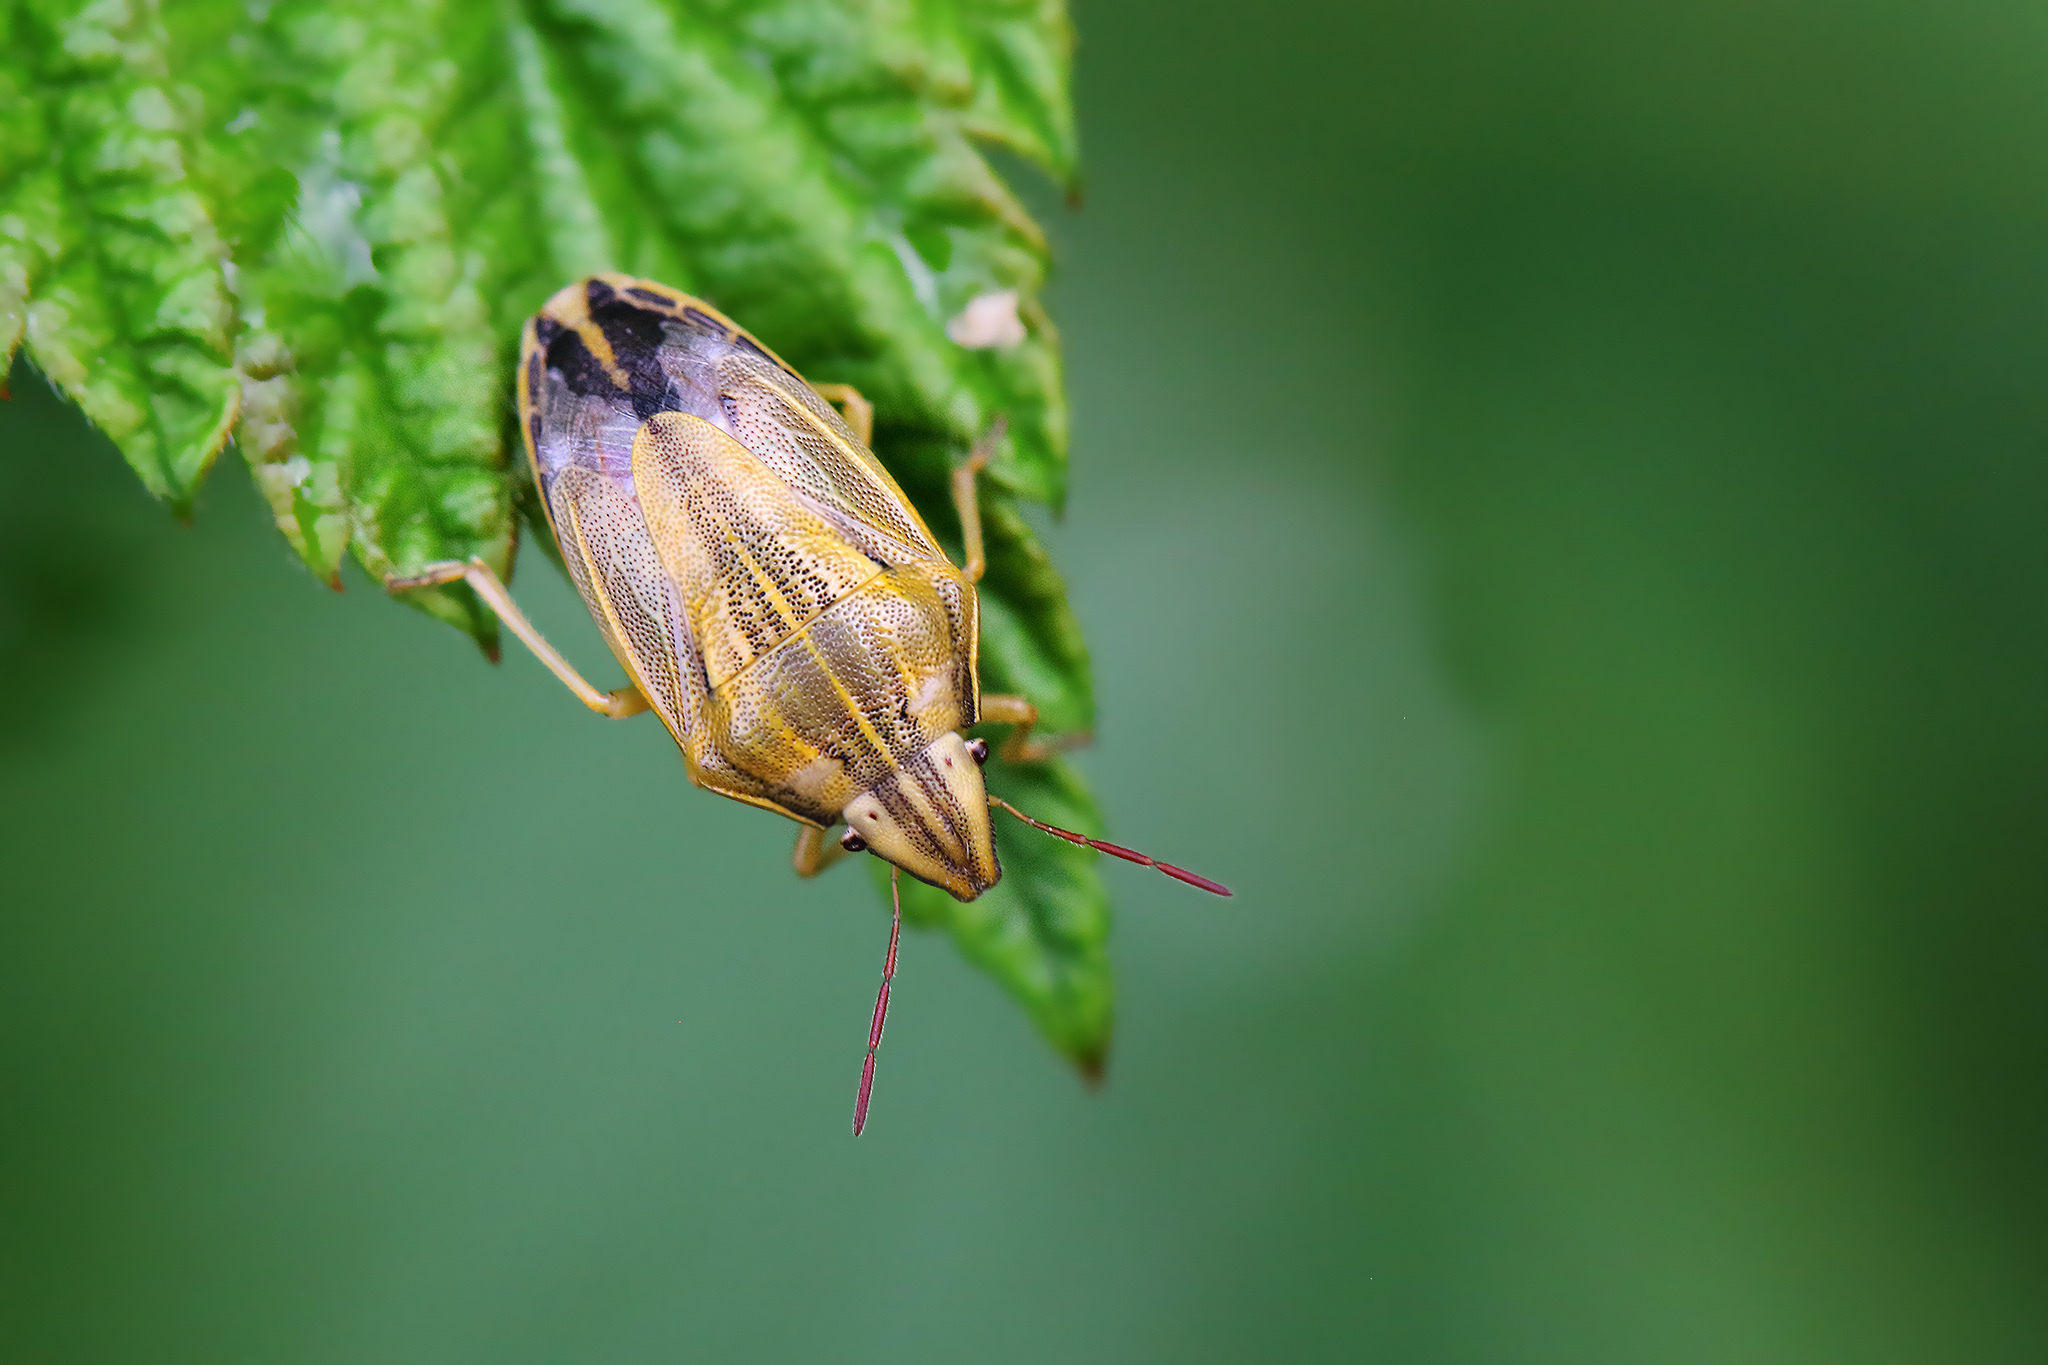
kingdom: Animalia
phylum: Arthropoda
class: Insecta
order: Hemiptera
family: Pentatomidae
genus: Aelia
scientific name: Aelia acuminata
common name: Bishop's mitre
